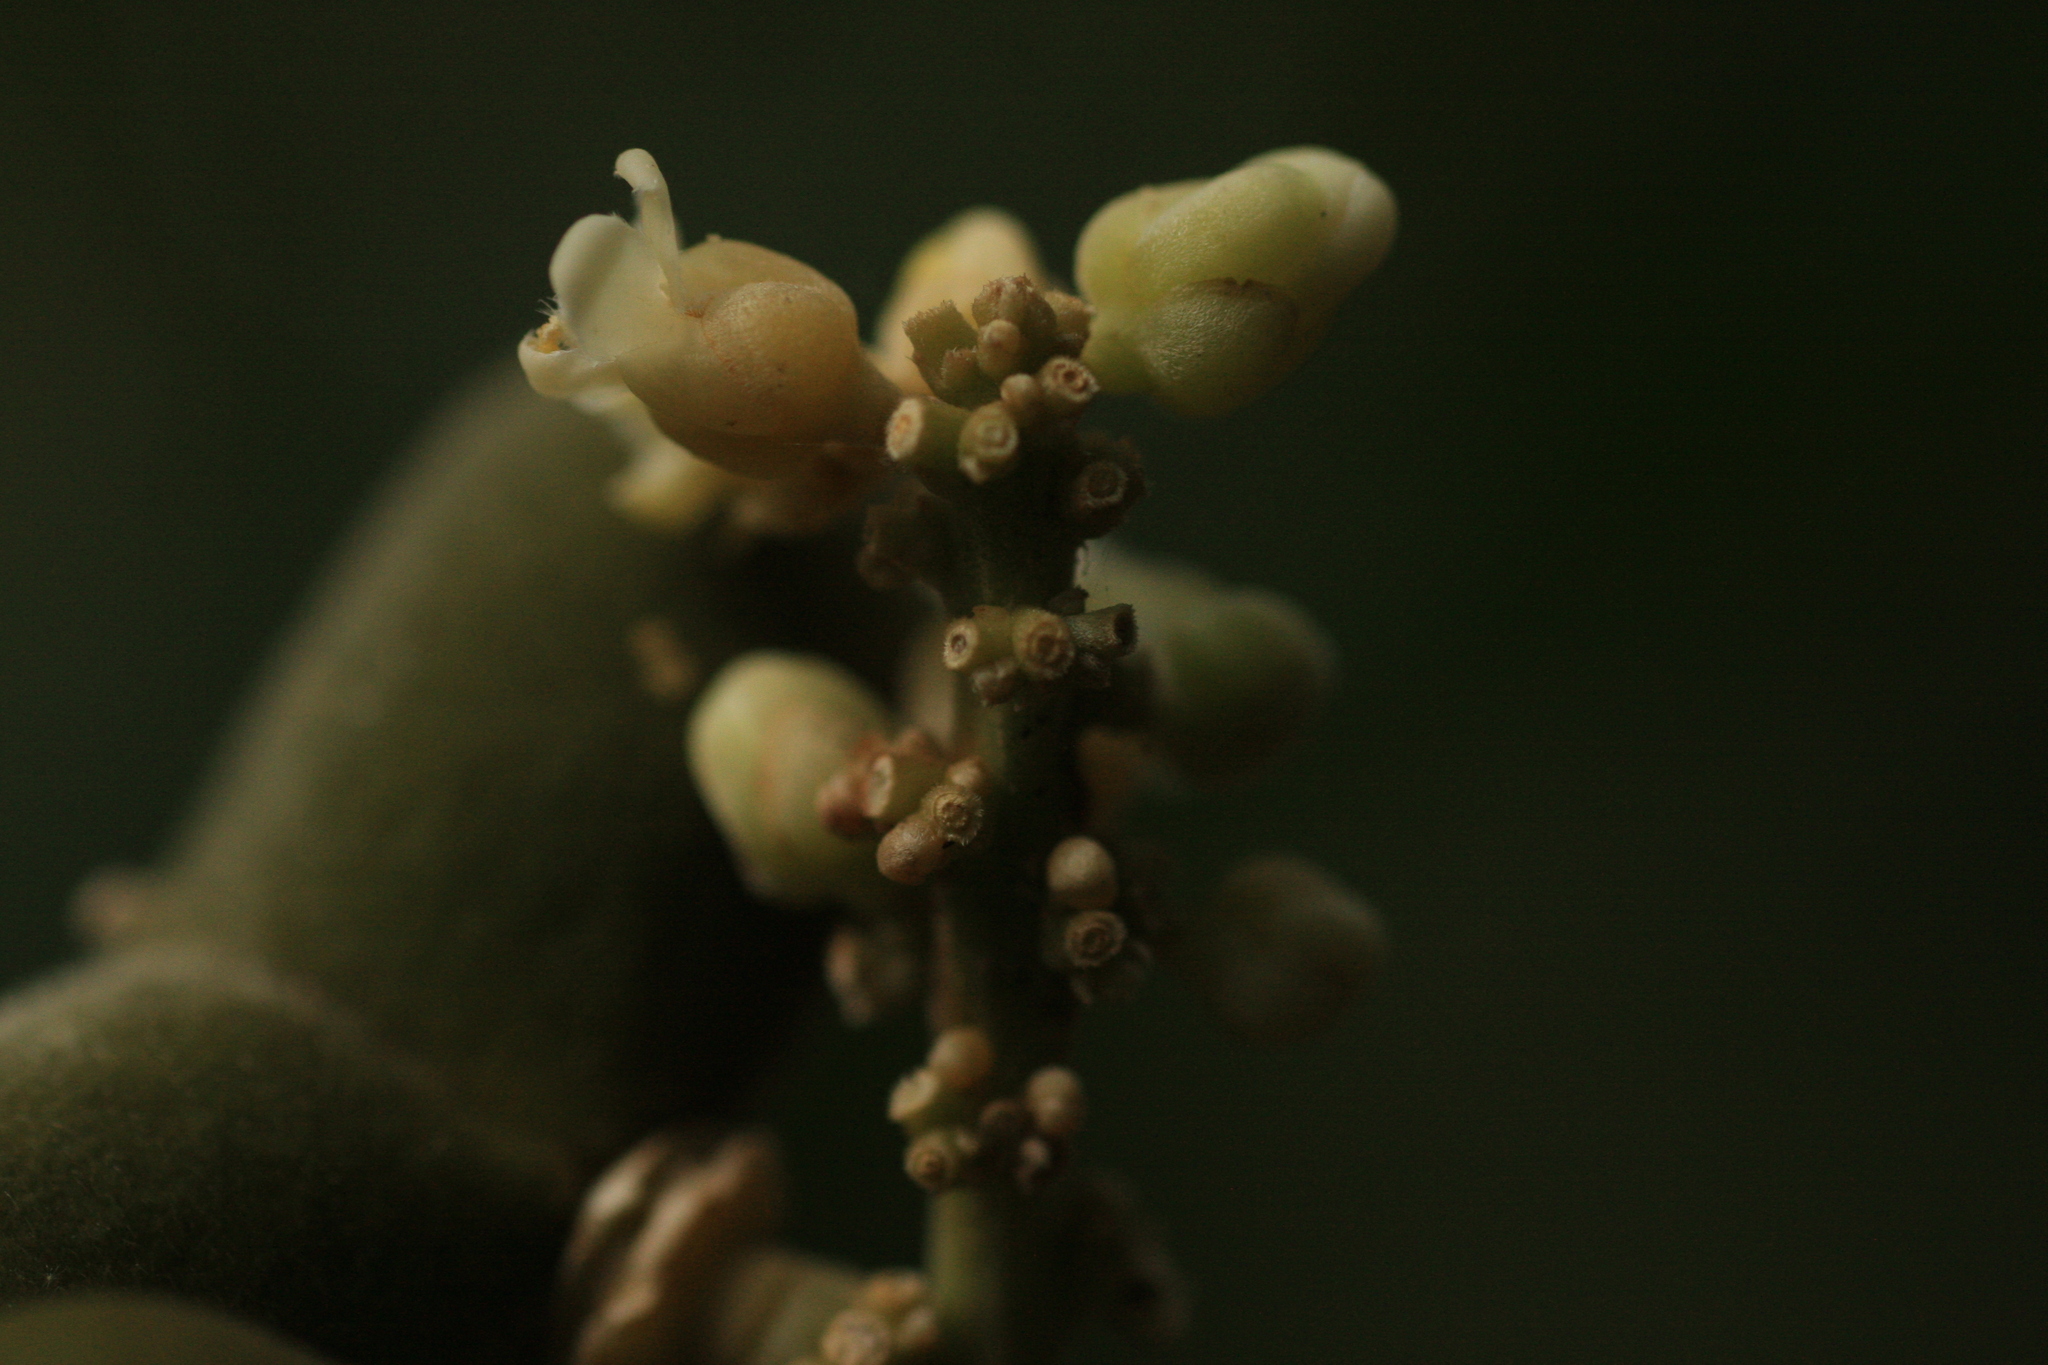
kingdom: Plantae
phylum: Tracheophyta
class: Magnoliopsida
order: Sapindales
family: Sapindaceae
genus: Lepisanthes
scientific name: Lepisanthes erecta
